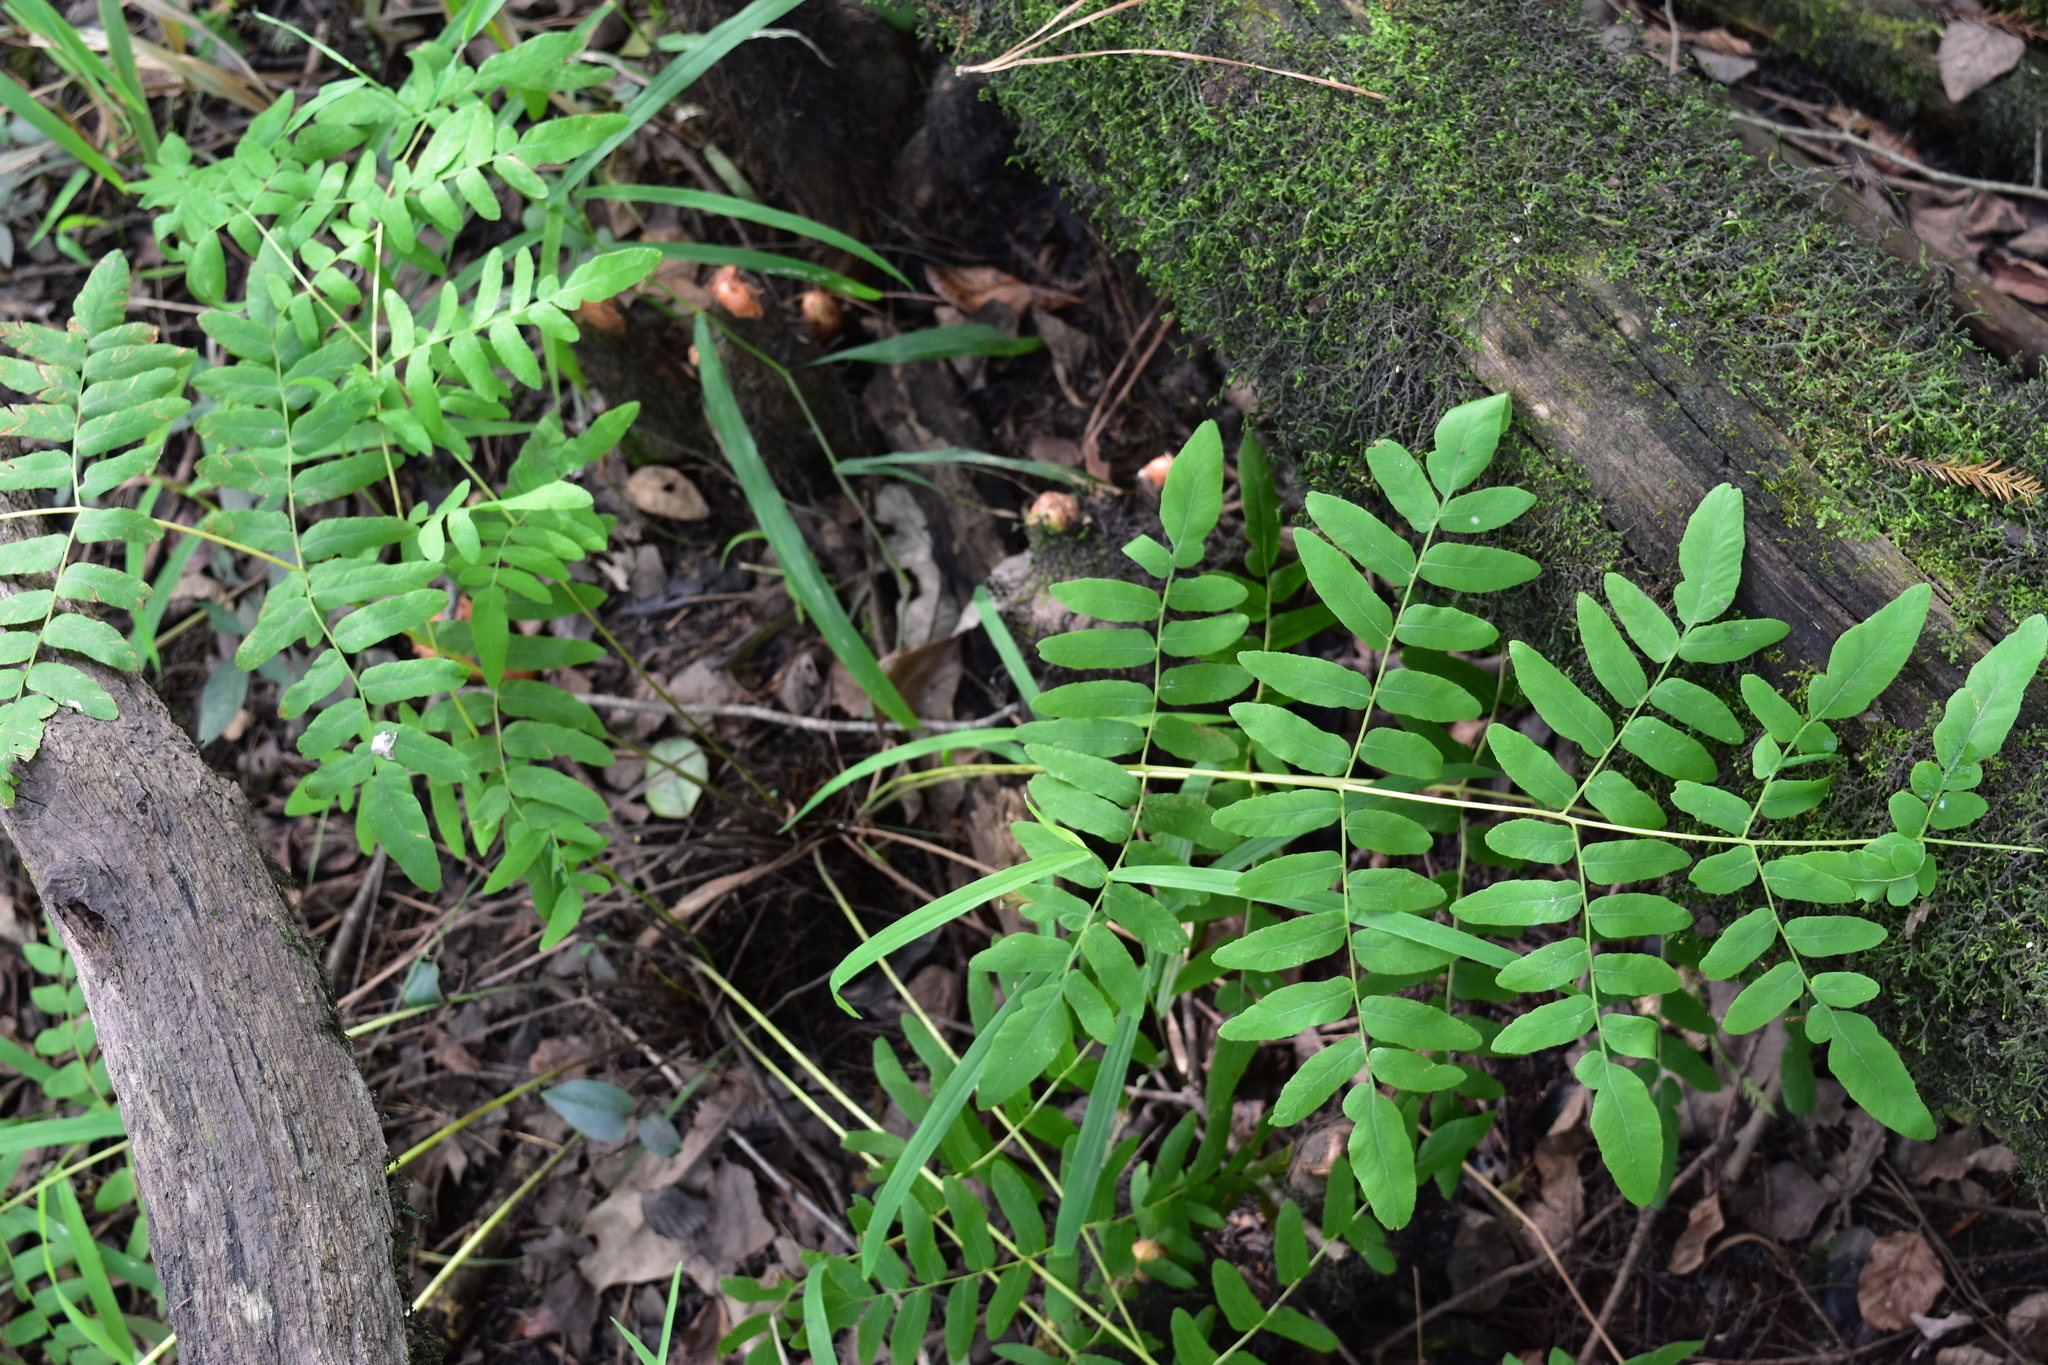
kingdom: Plantae
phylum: Tracheophyta
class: Polypodiopsida
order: Osmundales
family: Osmundaceae
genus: Osmunda
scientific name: Osmunda spectabilis
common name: American royal fern
